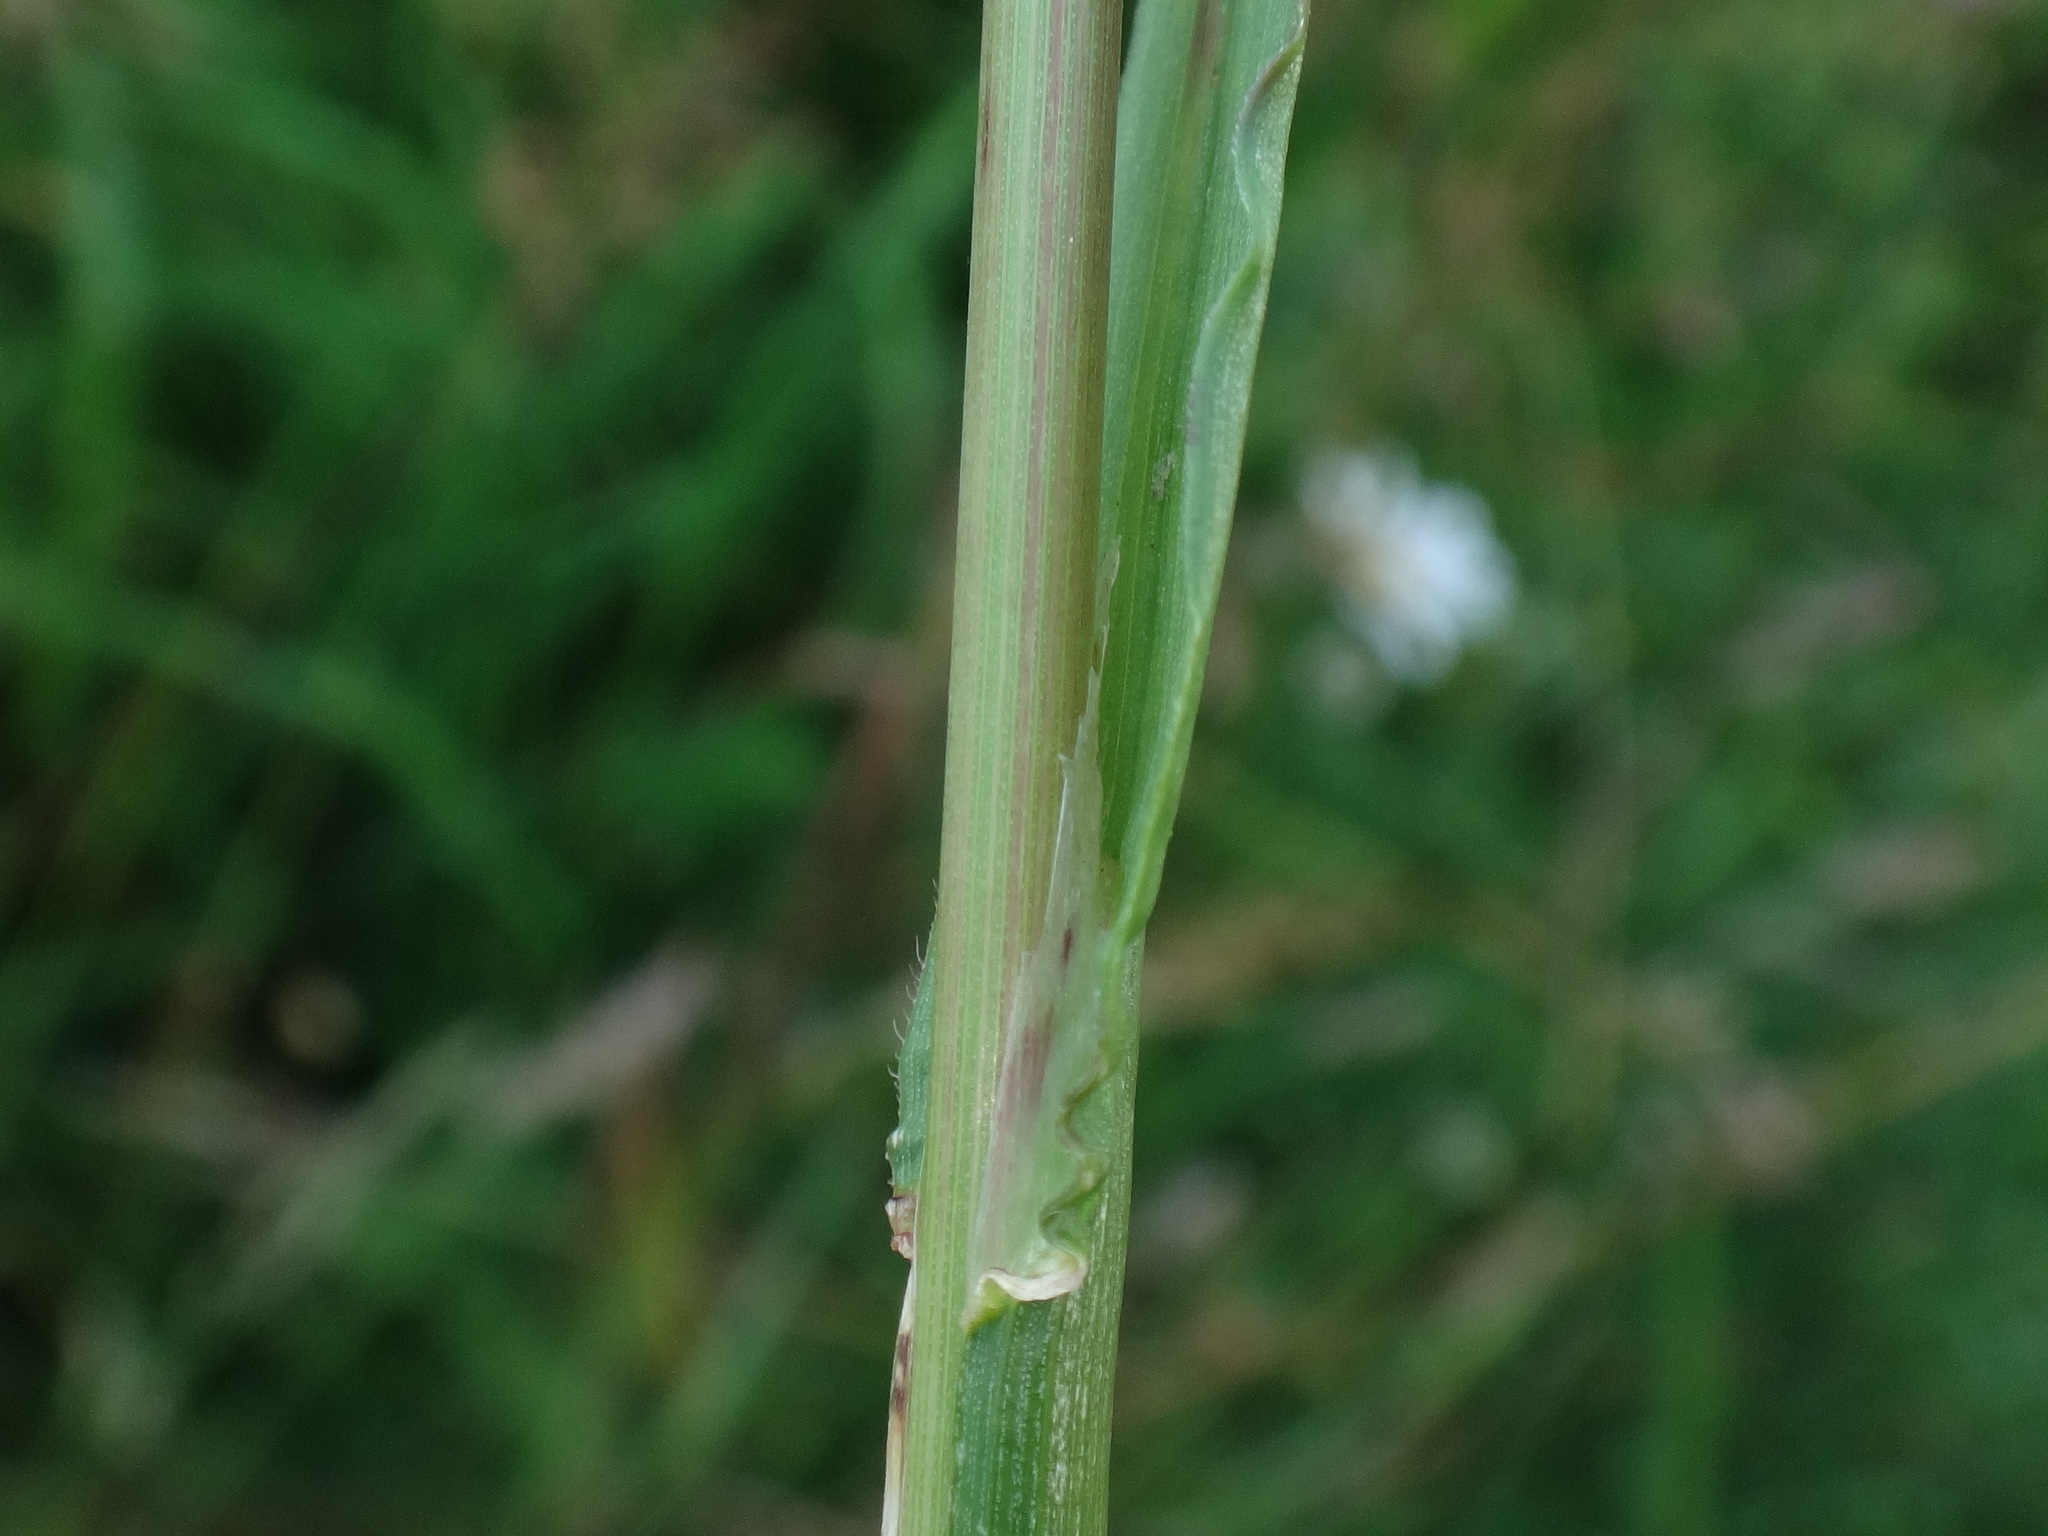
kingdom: Plantae
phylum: Tracheophyta
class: Liliopsida
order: Poales
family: Poaceae
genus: Avenula
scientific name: Avenula pubescens
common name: Downy alpine oatgrass
